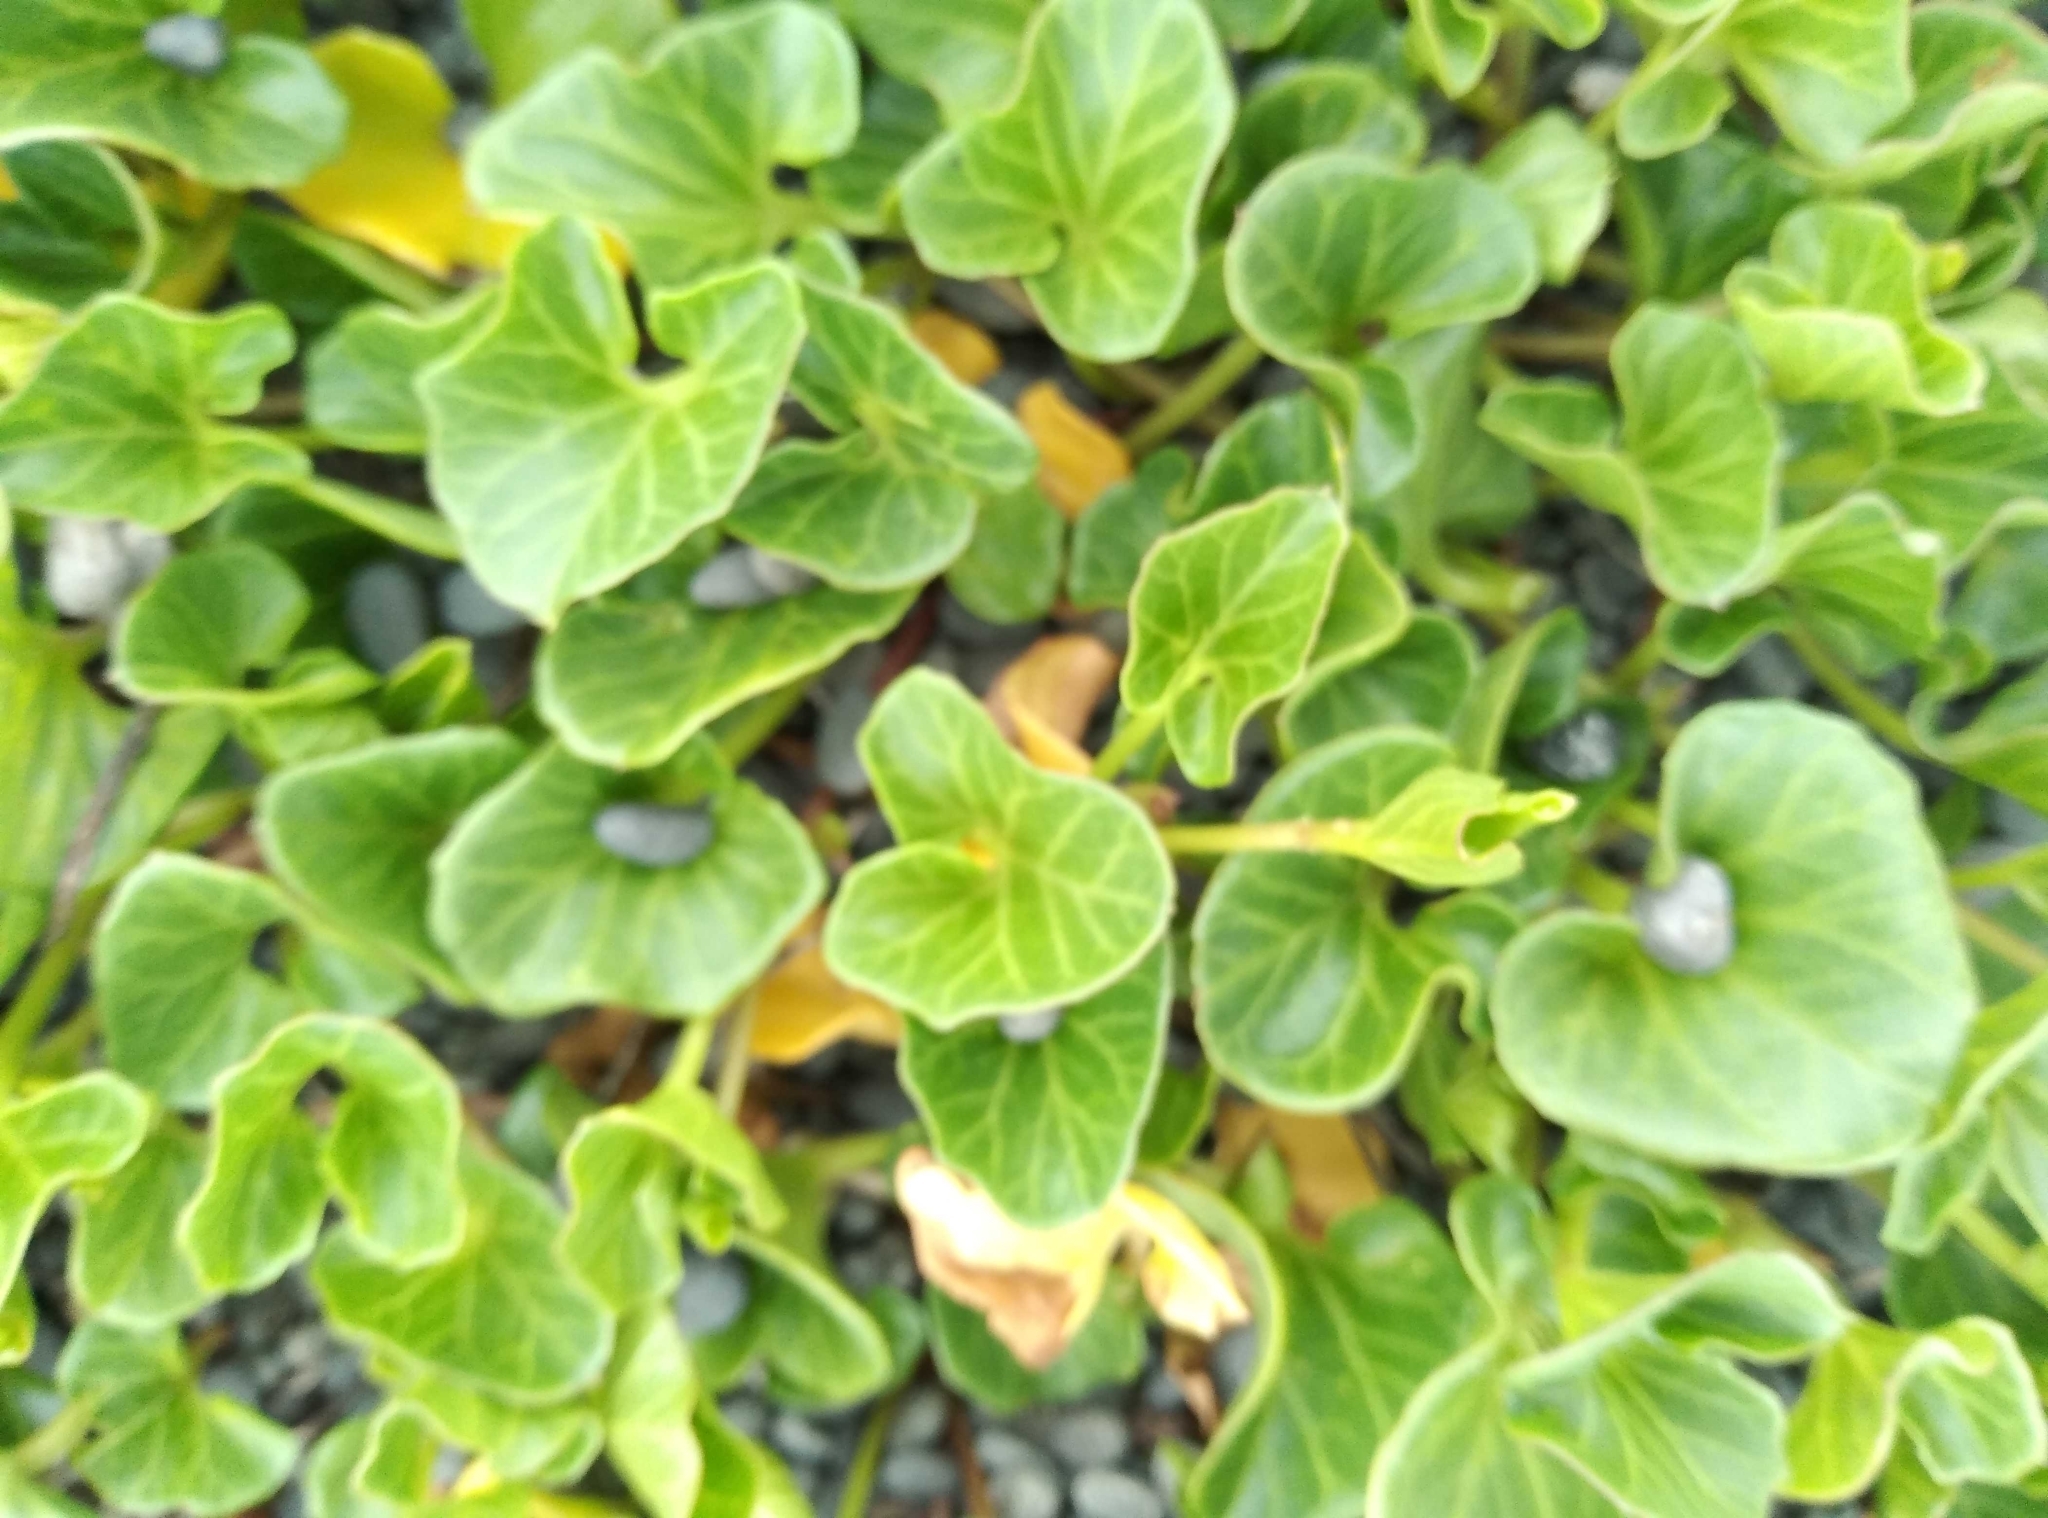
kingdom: Plantae
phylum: Tracheophyta
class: Magnoliopsida
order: Solanales
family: Convolvulaceae
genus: Calystegia
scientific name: Calystegia soldanella
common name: Sea bindweed
